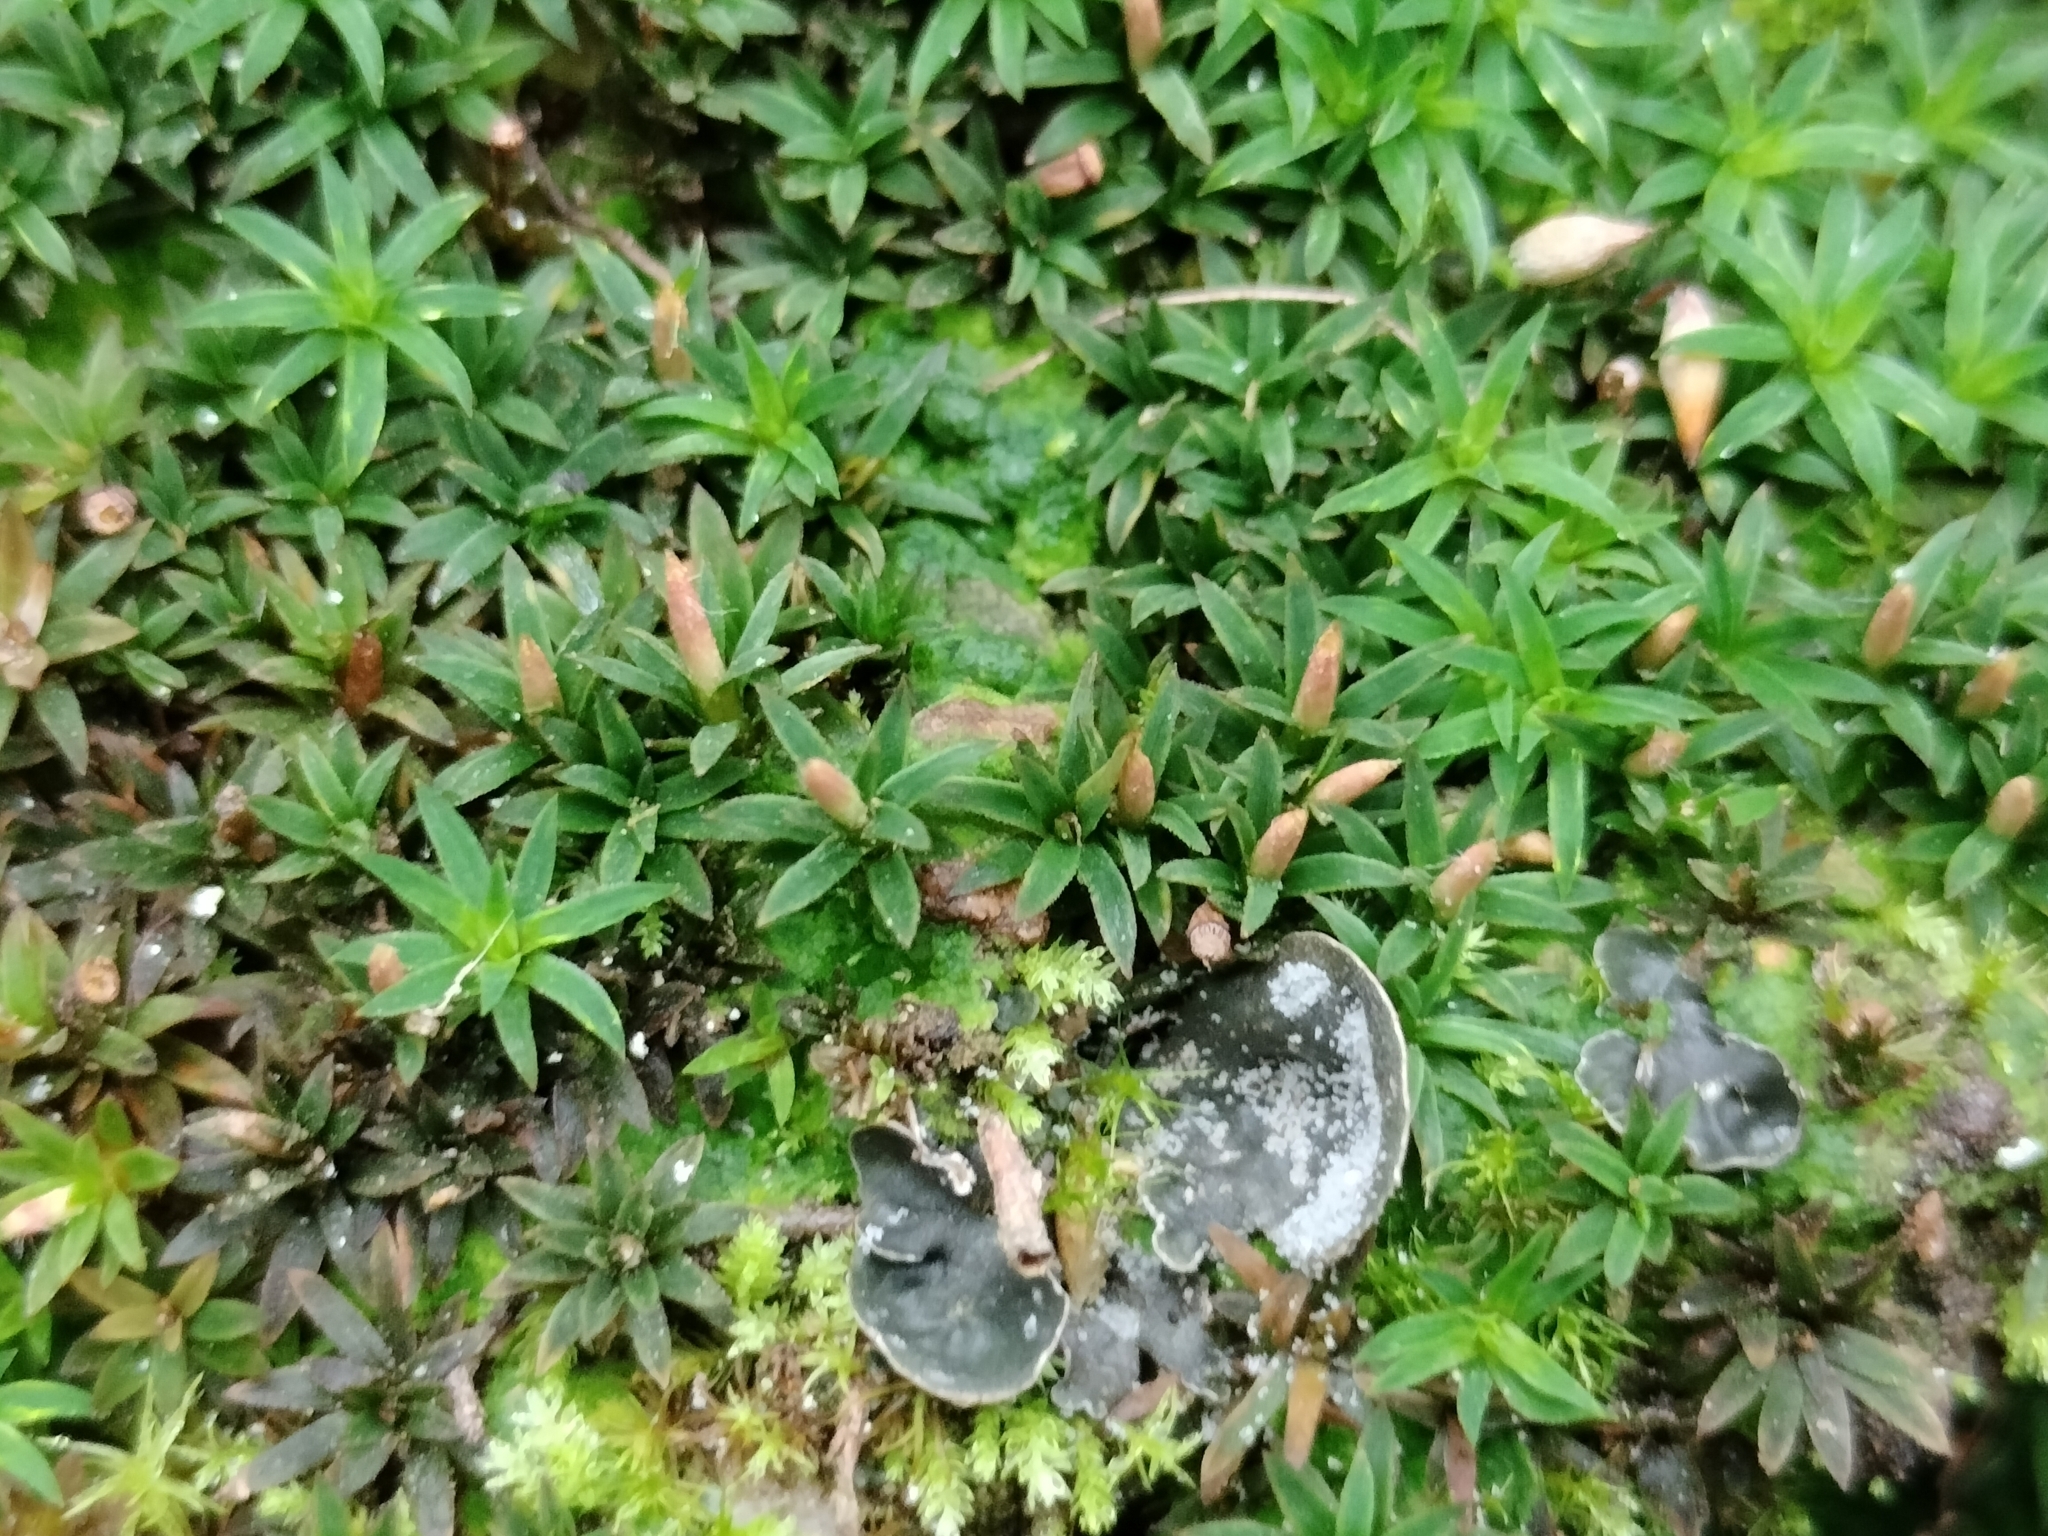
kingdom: Plantae
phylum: Bryophyta
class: Polytrichopsida
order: Polytrichales
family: Polytrichaceae
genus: Pogonatum
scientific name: Pogonatum aloides
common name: Aloe haircap
